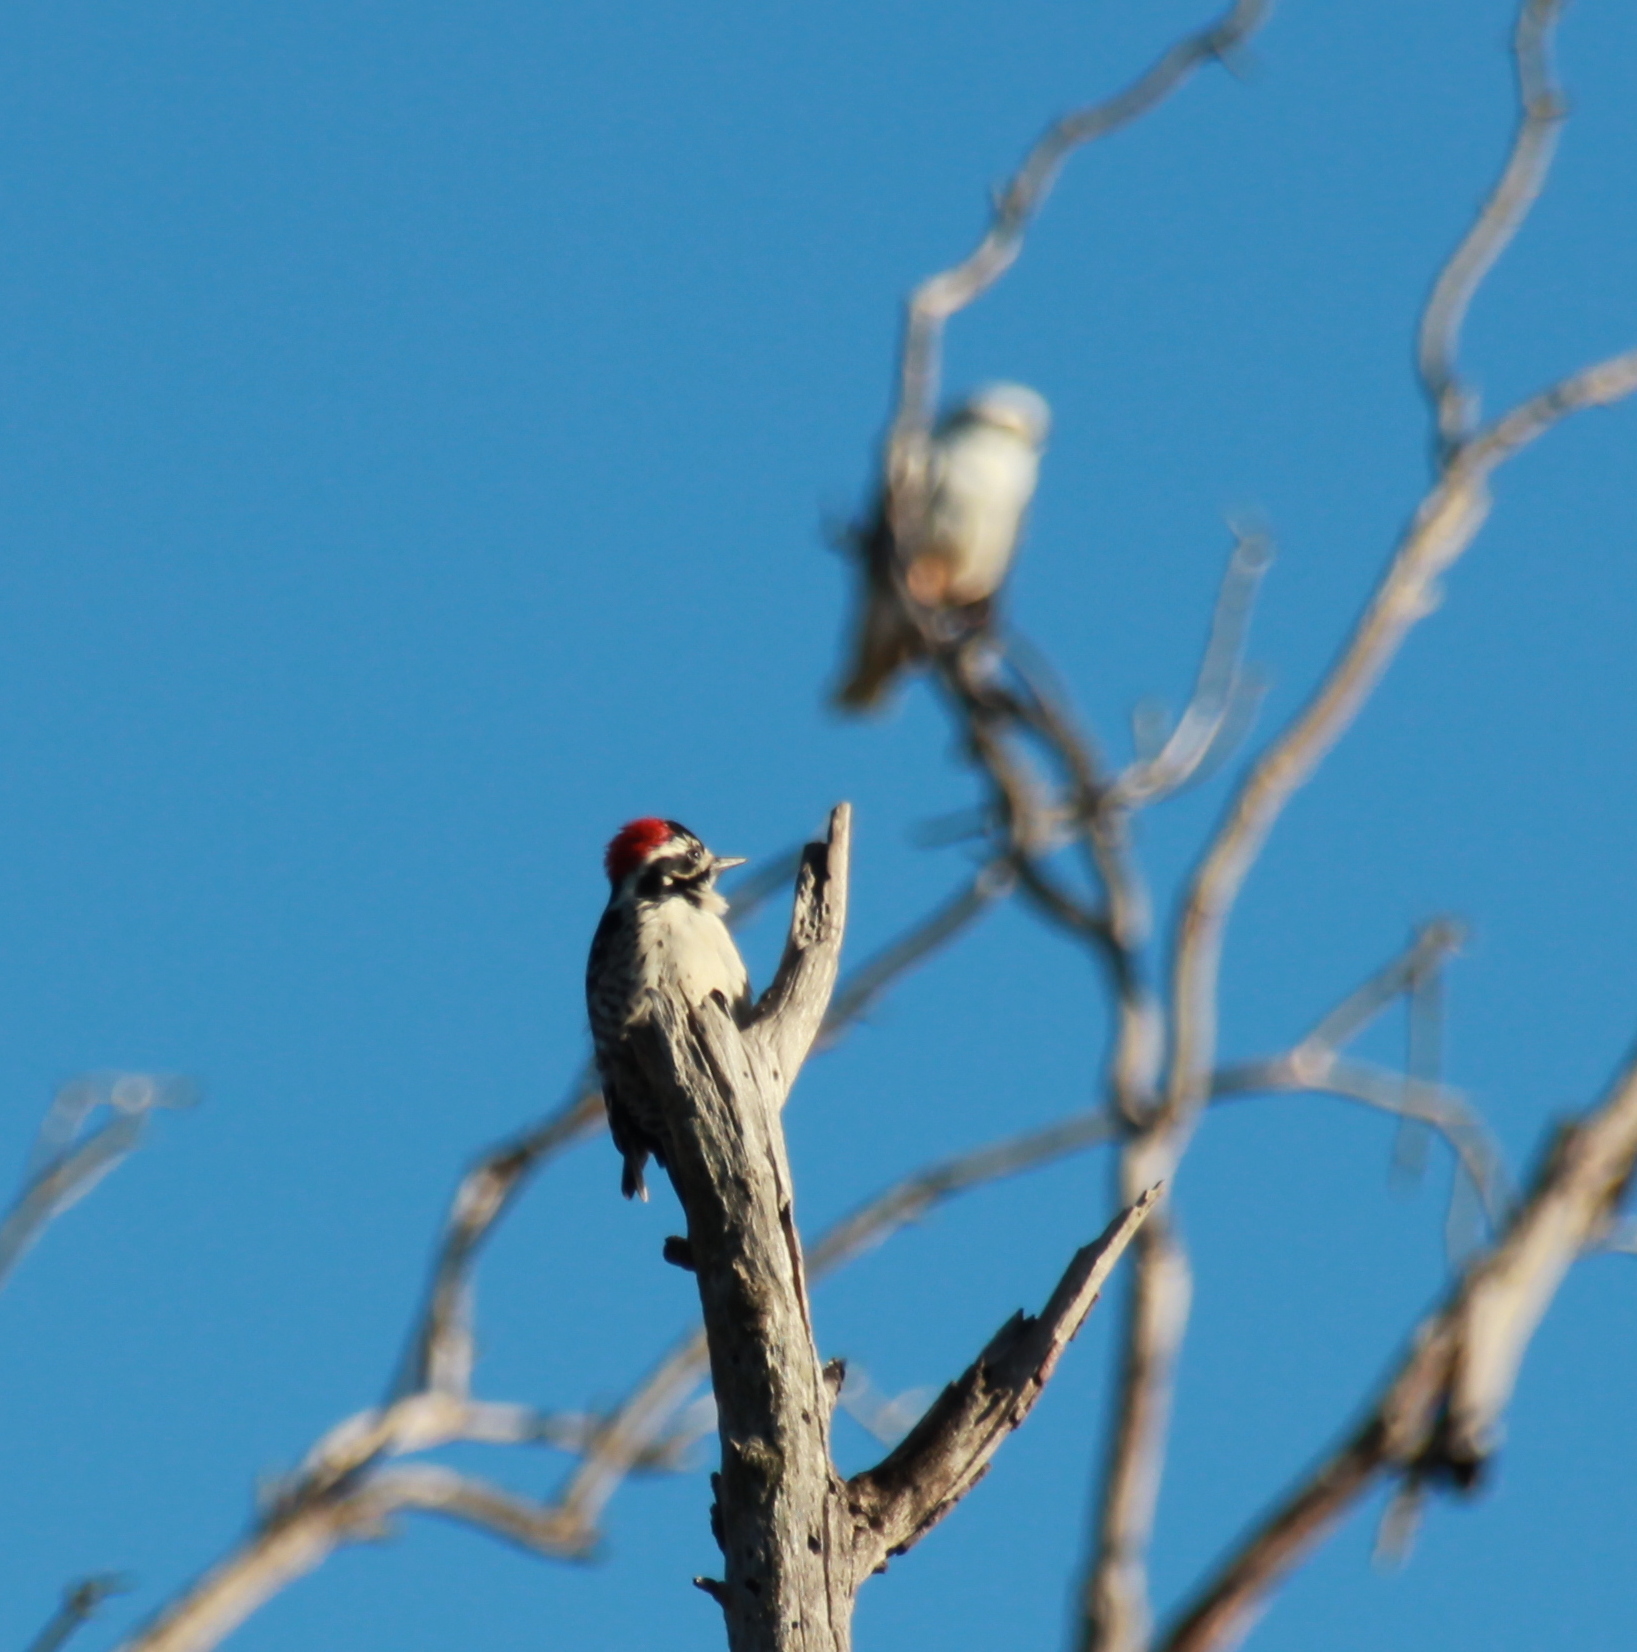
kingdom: Animalia
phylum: Chordata
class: Aves
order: Piciformes
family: Picidae
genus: Dryobates
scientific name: Dryobates nuttallii
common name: Nuttall's woodpecker
